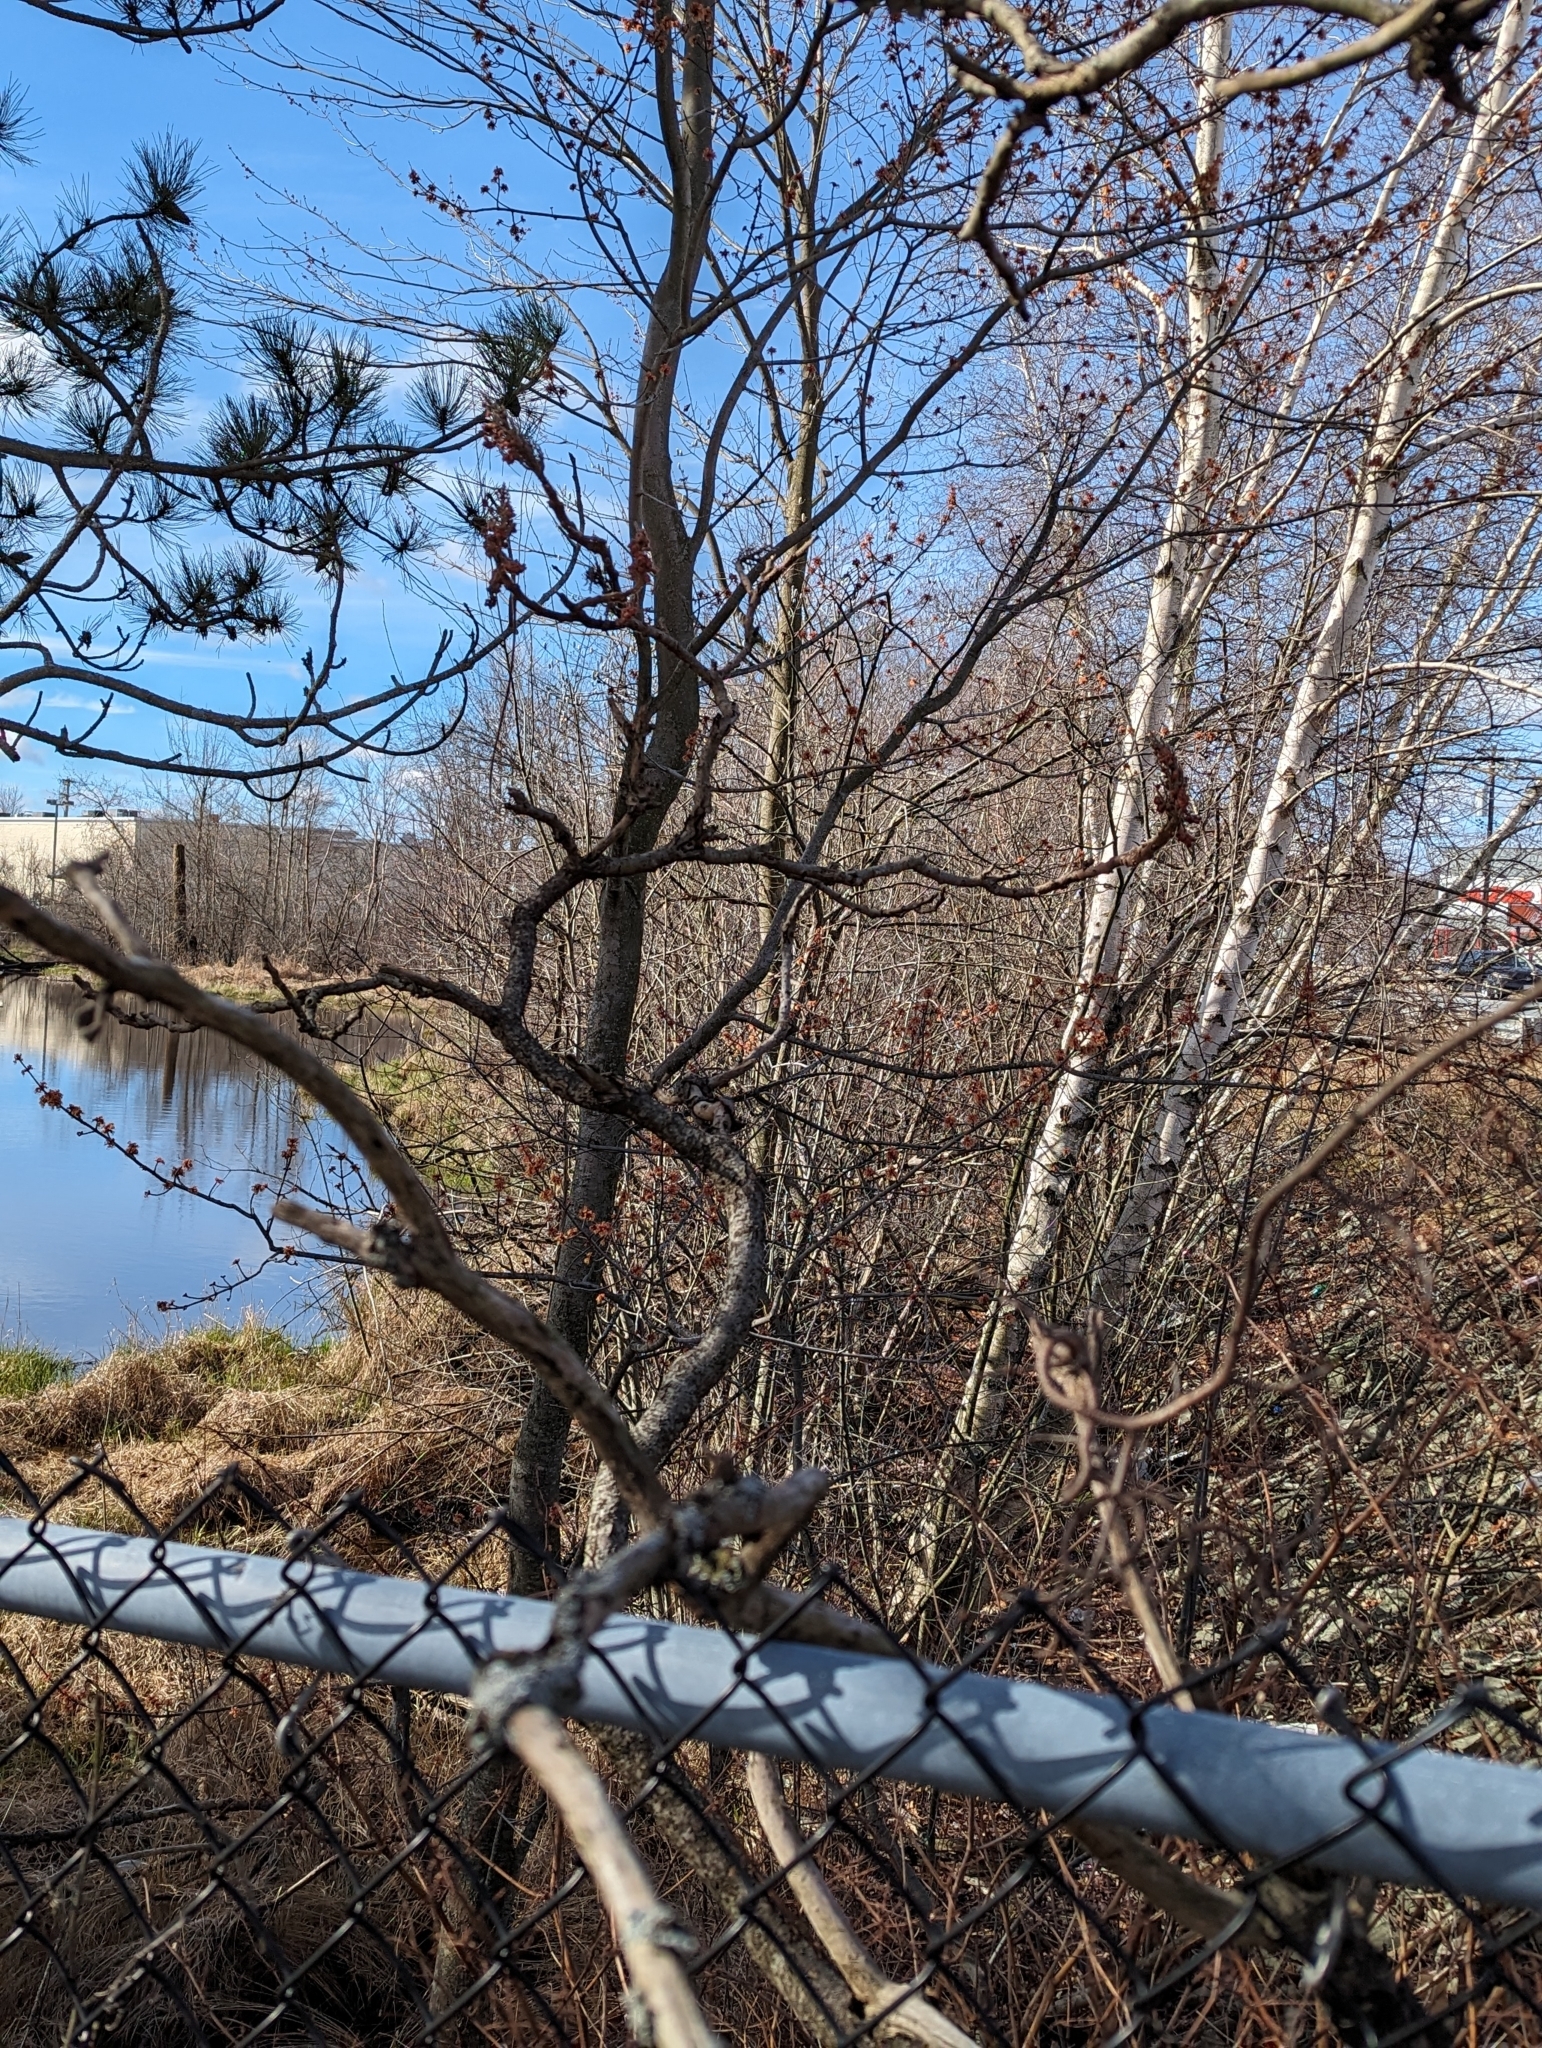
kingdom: Plantae
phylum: Tracheophyta
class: Magnoliopsida
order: Sapindales
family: Anacardiaceae
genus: Rhus
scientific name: Rhus typhina
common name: Staghorn sumac
